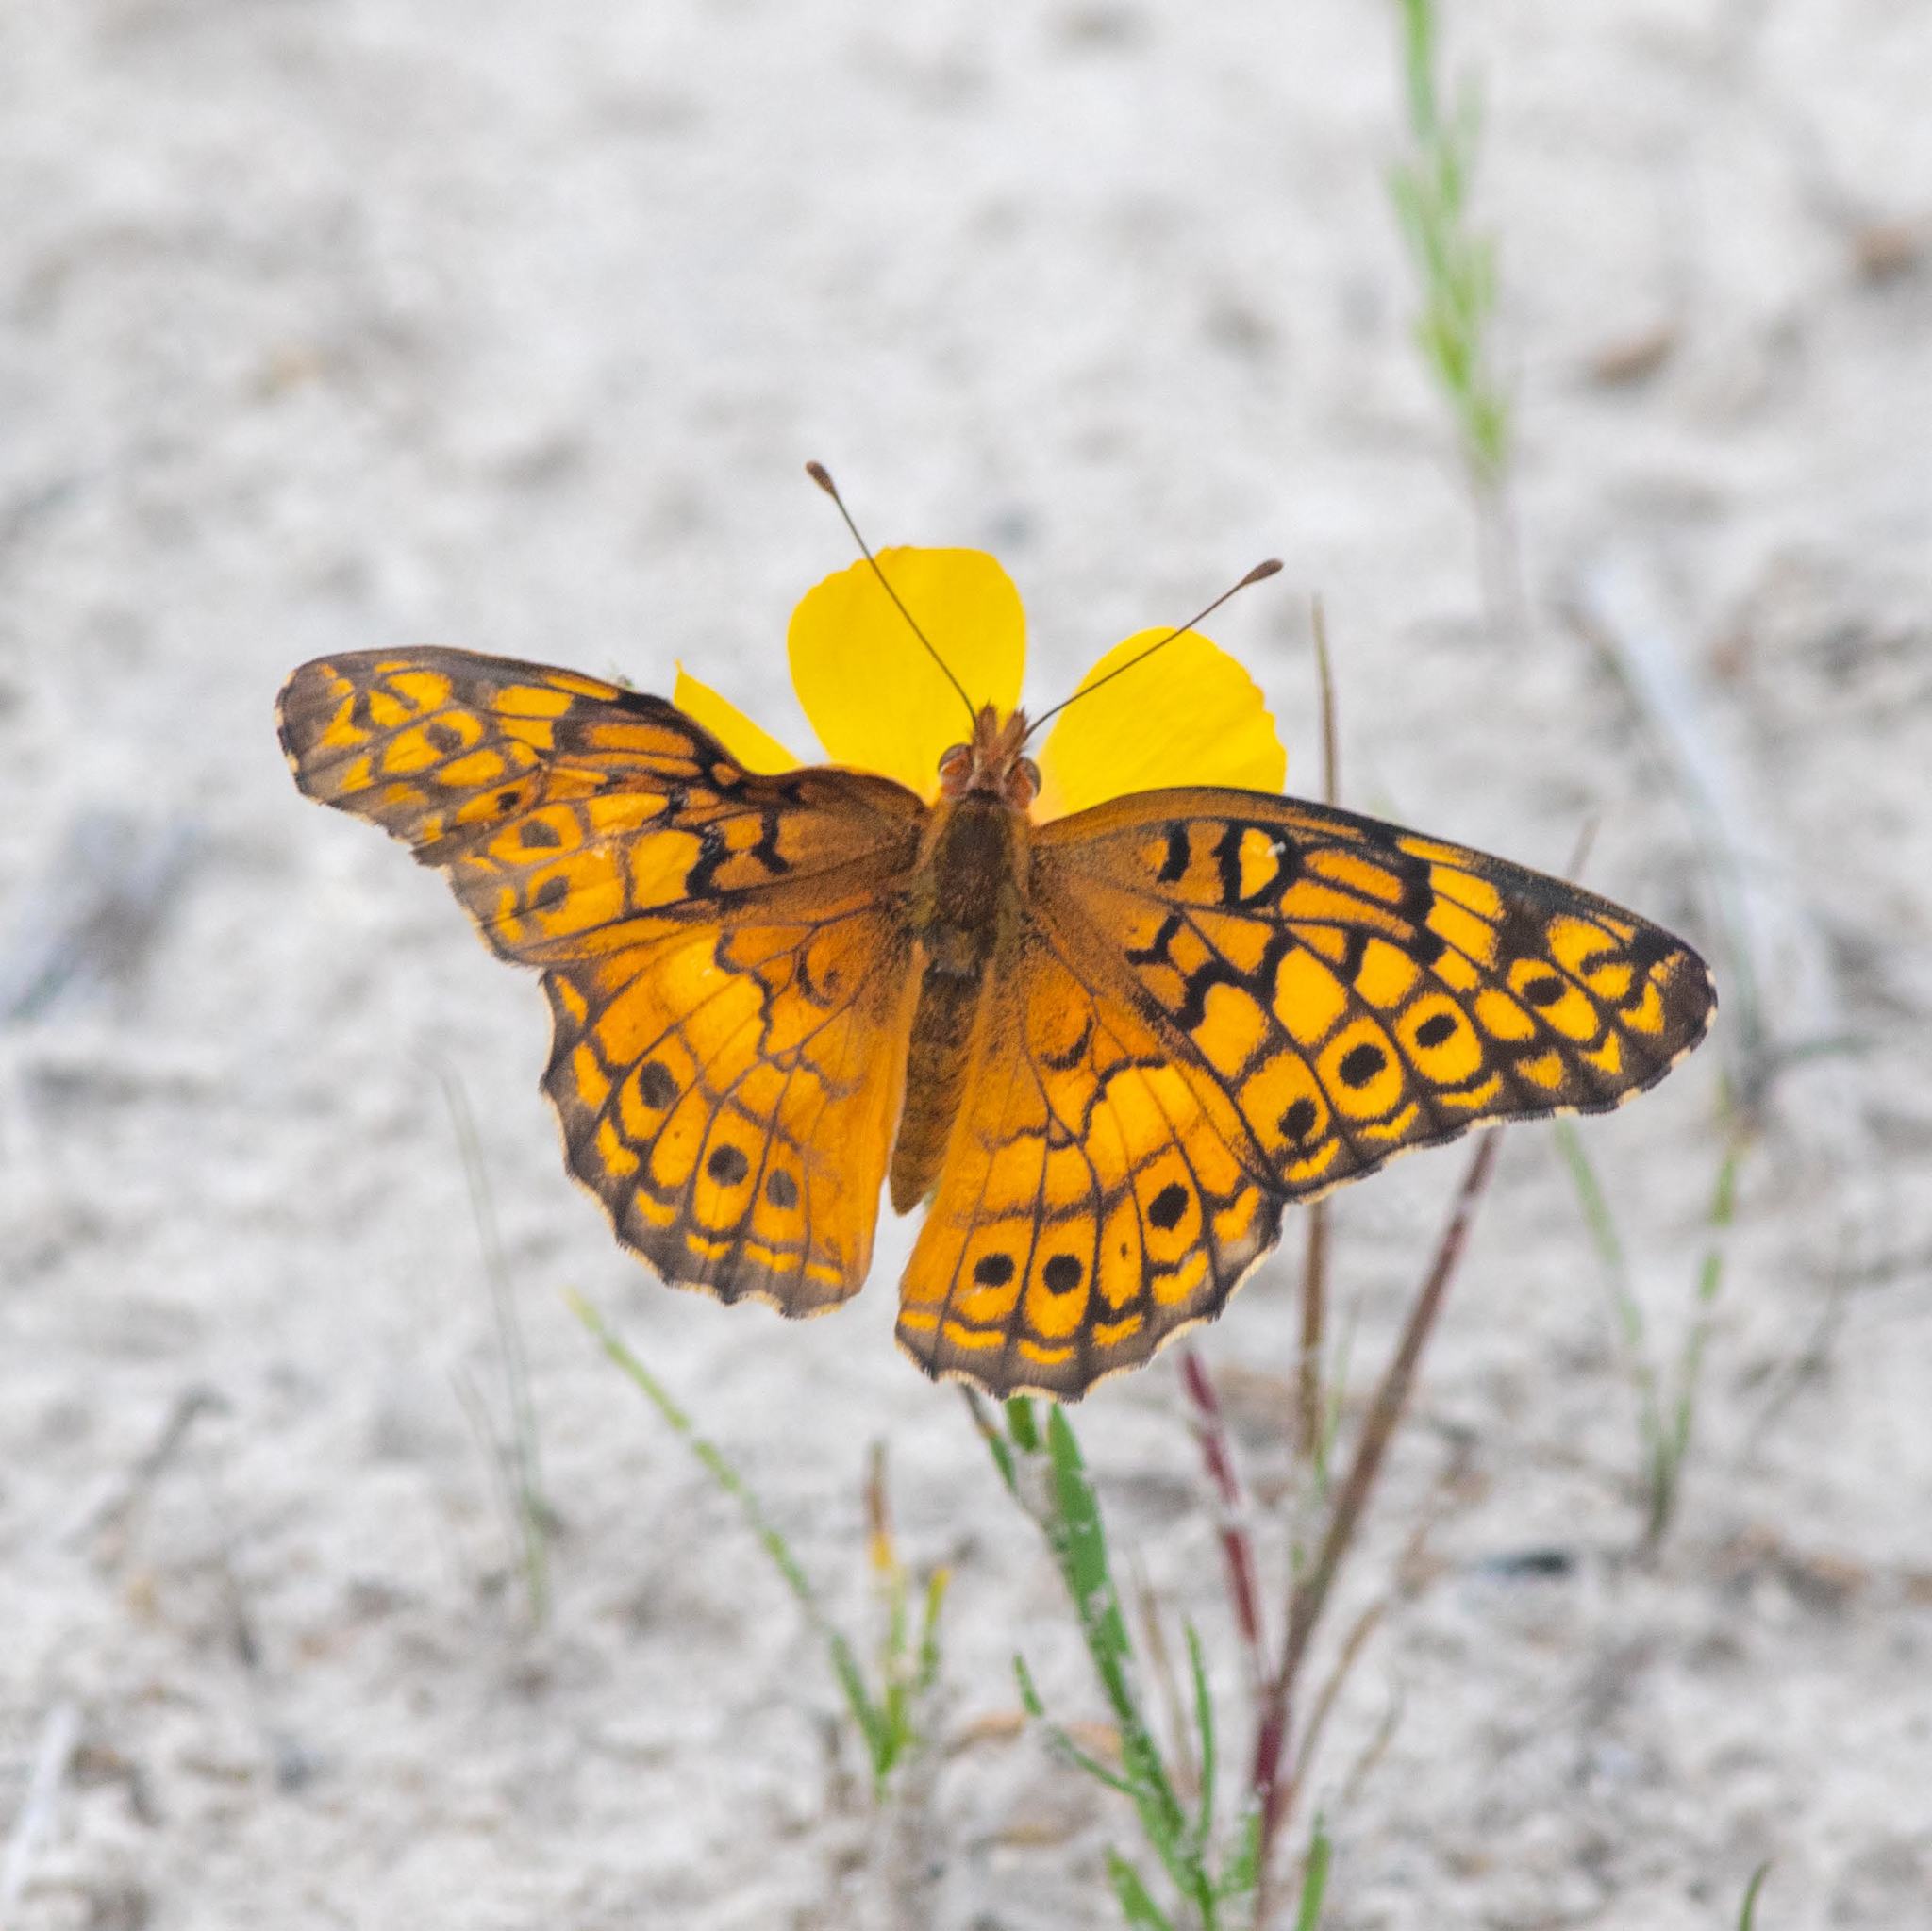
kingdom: Animalia
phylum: Arthropoda
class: Insecta
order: Lepidoptera
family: Nymphalidae
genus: Euptoieta
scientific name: Euptoieta claudia
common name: Variegated fritillary
